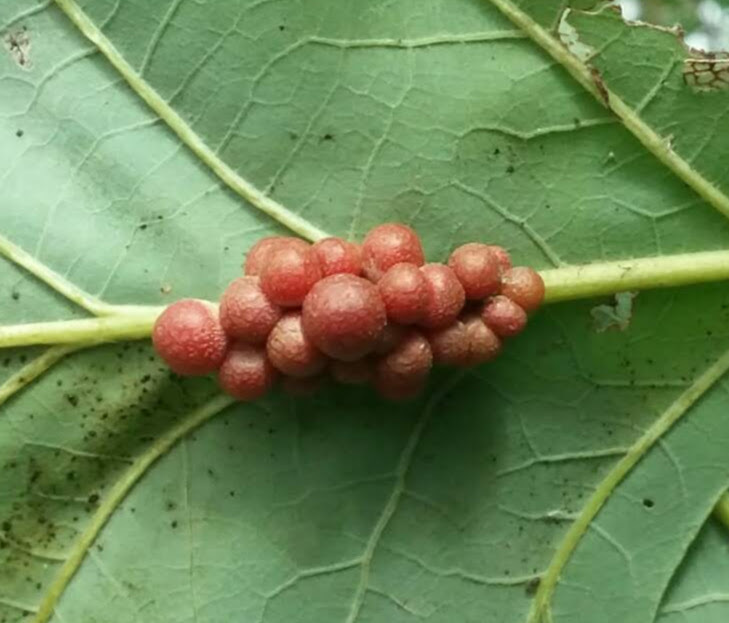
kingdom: Animalia
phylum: Arthropoda
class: Insecta
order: Hymenoptera
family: Cynipidae
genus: Andricus
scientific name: Andricus
